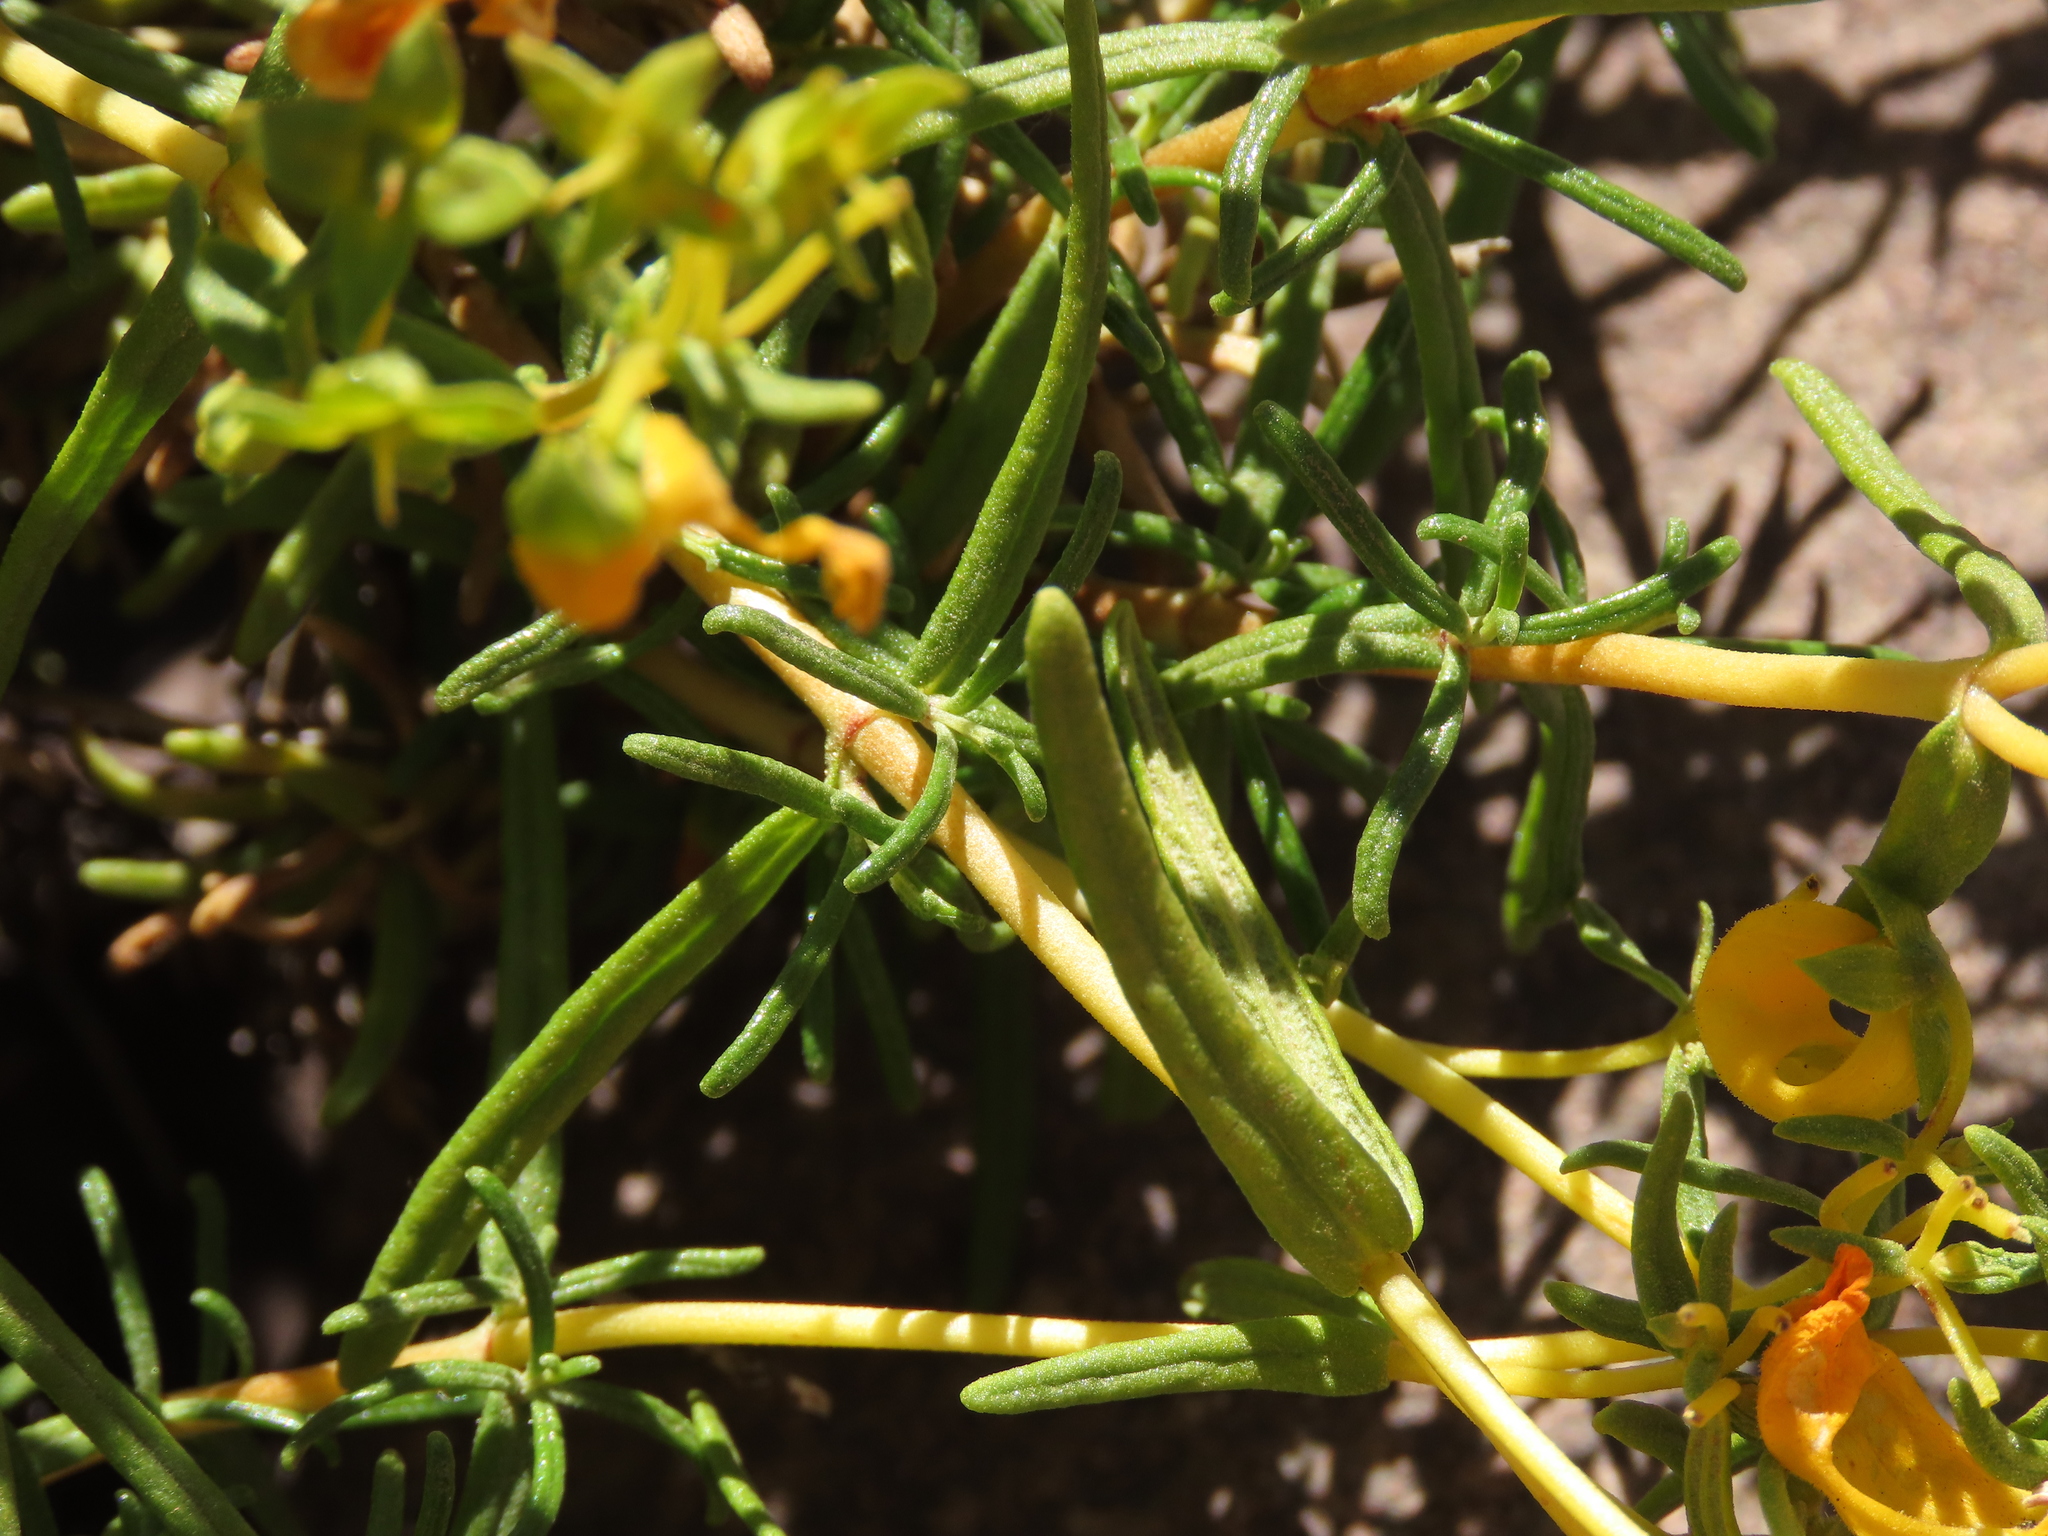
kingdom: Plantae
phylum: Tracheophyta
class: Magnoliopsida
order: Lamiales
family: Calceolariaceae
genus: Calceolaria
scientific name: Calceolaria hypericina
